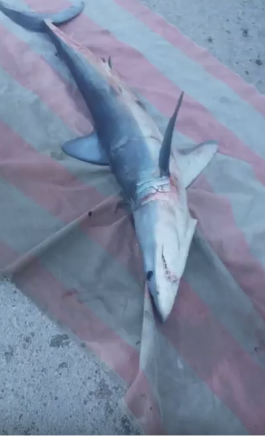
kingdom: Animalia
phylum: Chordata
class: Elasmobranchii
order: Lamniformes
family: Lamnidae
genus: Isurus
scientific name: Isurus oxyrinchus
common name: Shortfin mako
